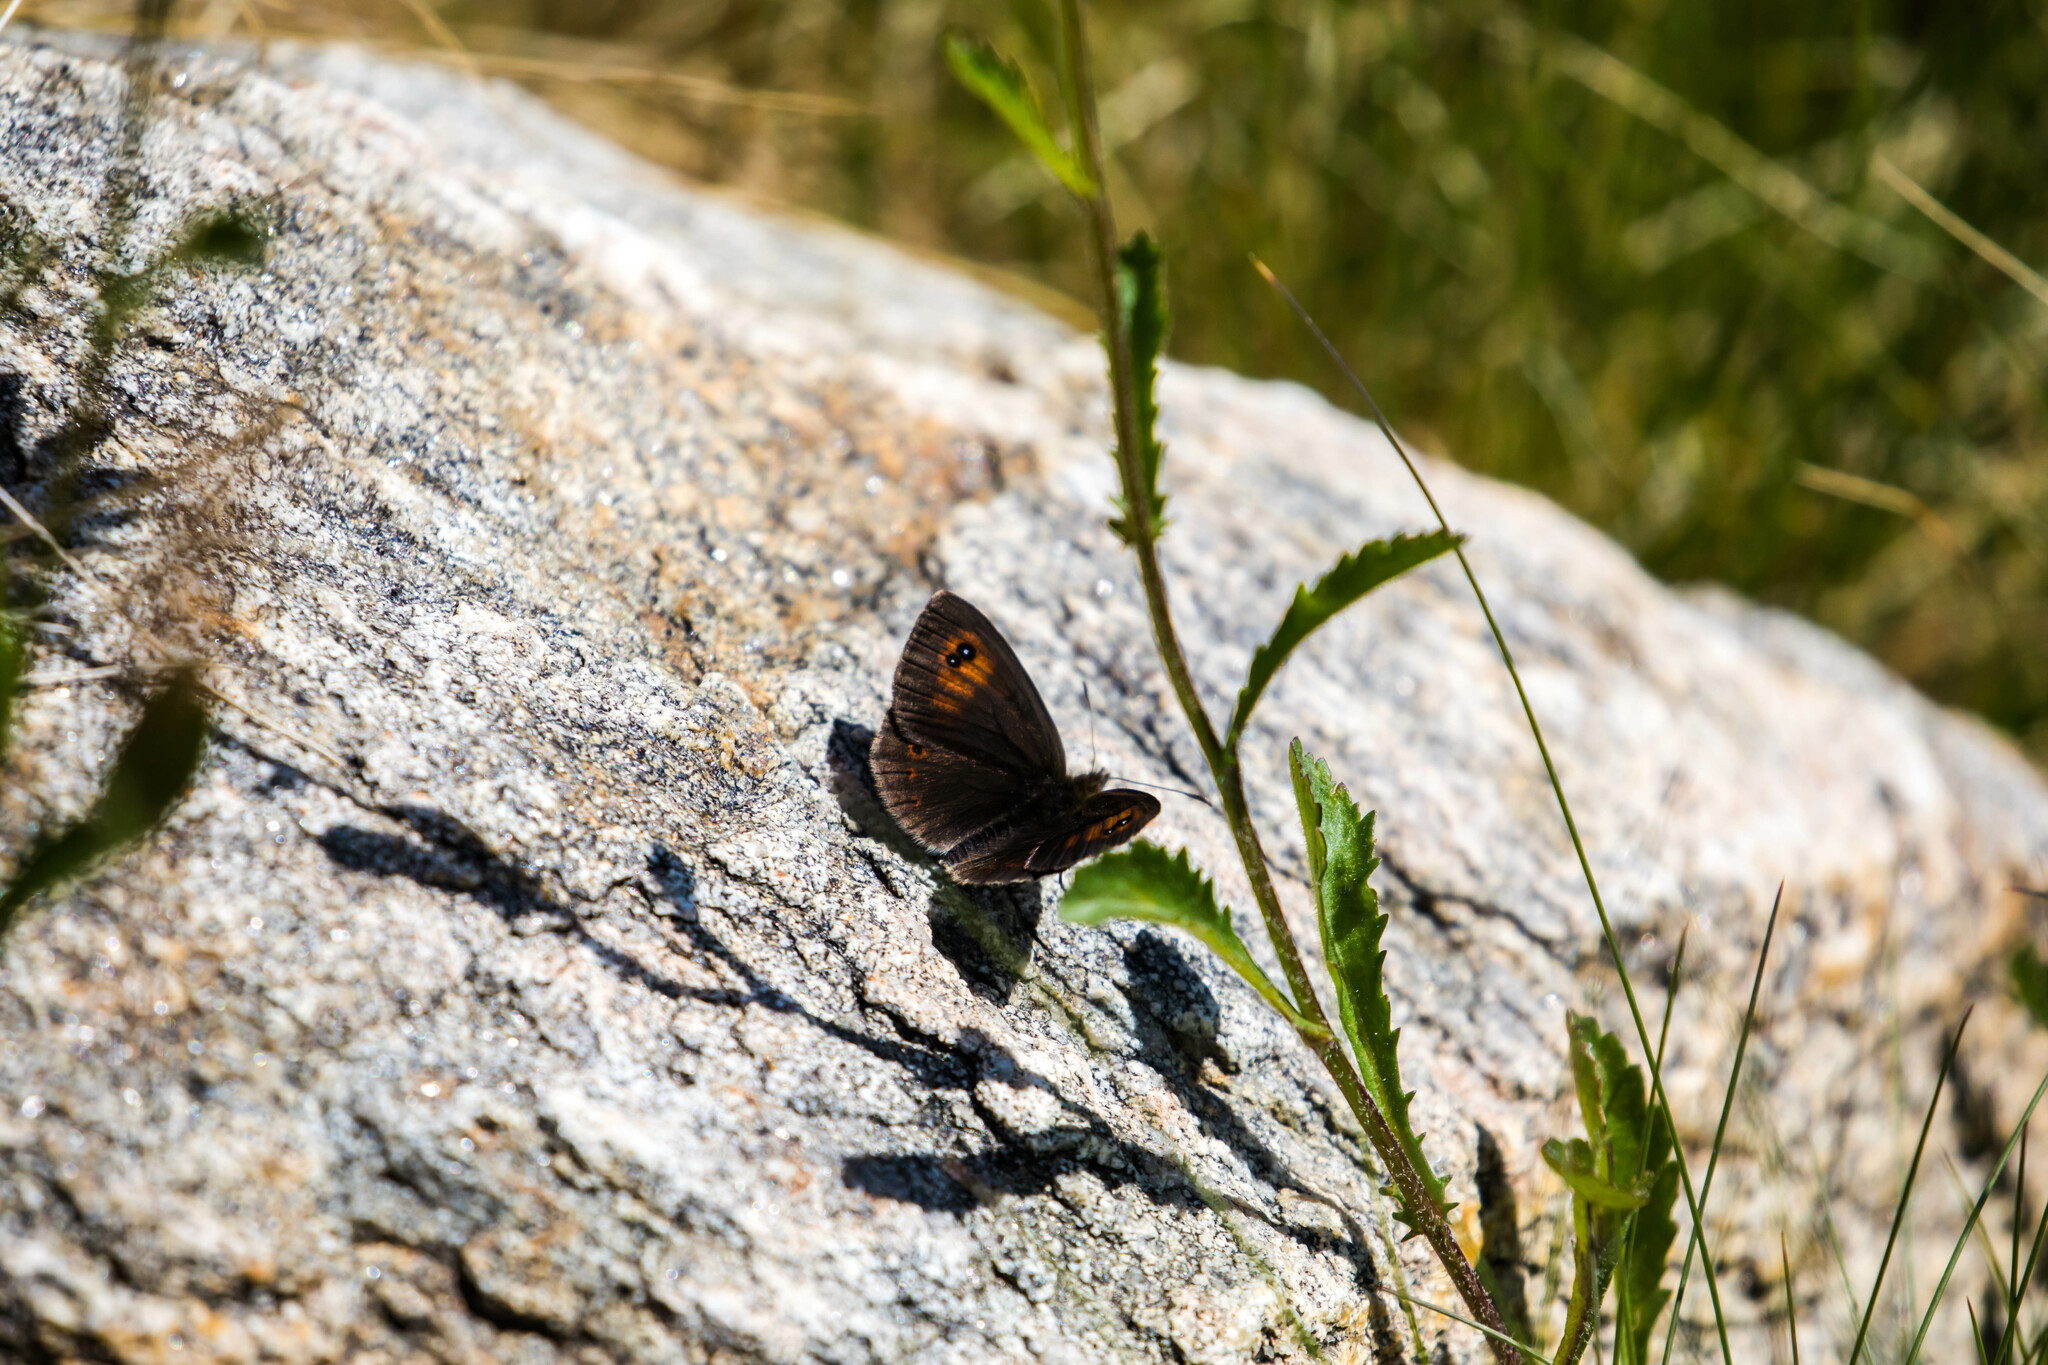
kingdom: Animalia
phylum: Arthropoda
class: Insecta
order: Lepidoptera
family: Nymphalidae
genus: Erebia
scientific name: Erebia cassioides
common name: Common brassy ringlet
